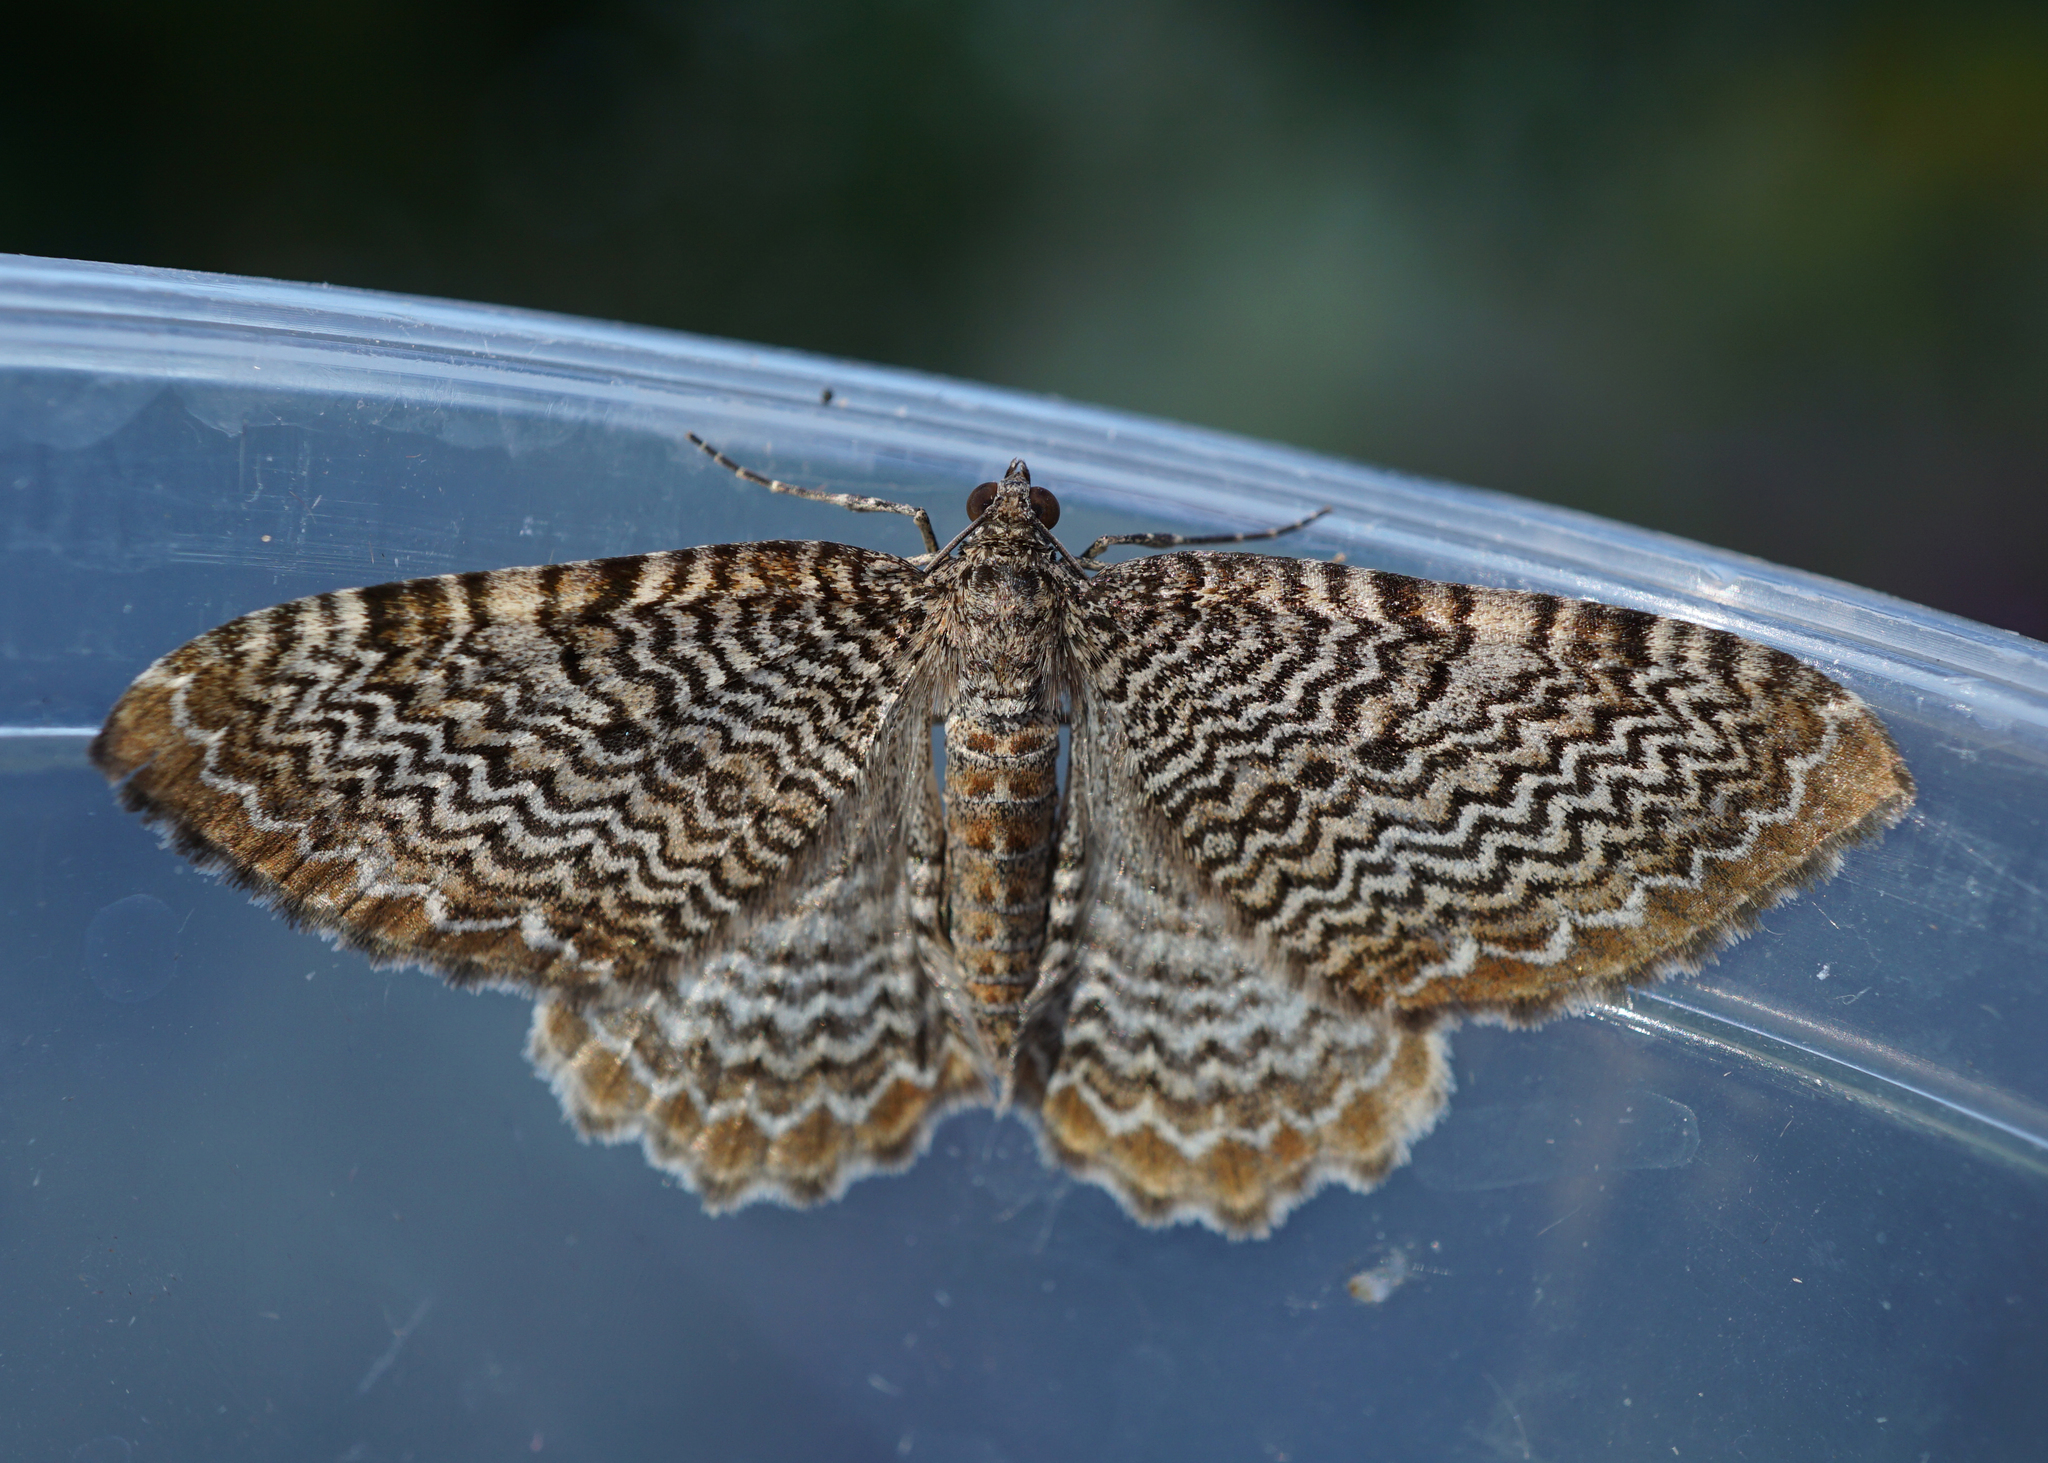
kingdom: Animalia
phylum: Arthropoda
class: Insecta
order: Lepidoptera
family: Geometridae
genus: Rheumaptera
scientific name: Rheumaptera undulata
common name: Scallop shell
